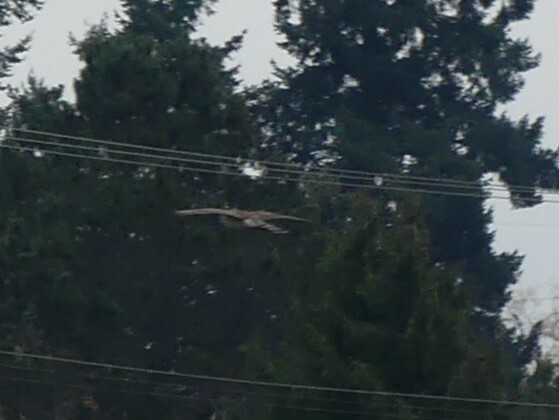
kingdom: Animalia
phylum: Chordata
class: Aves
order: Accipitriformes
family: Accipitridae
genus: Accipiter
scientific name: Accipiter cooperii
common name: Cooper's hawk
